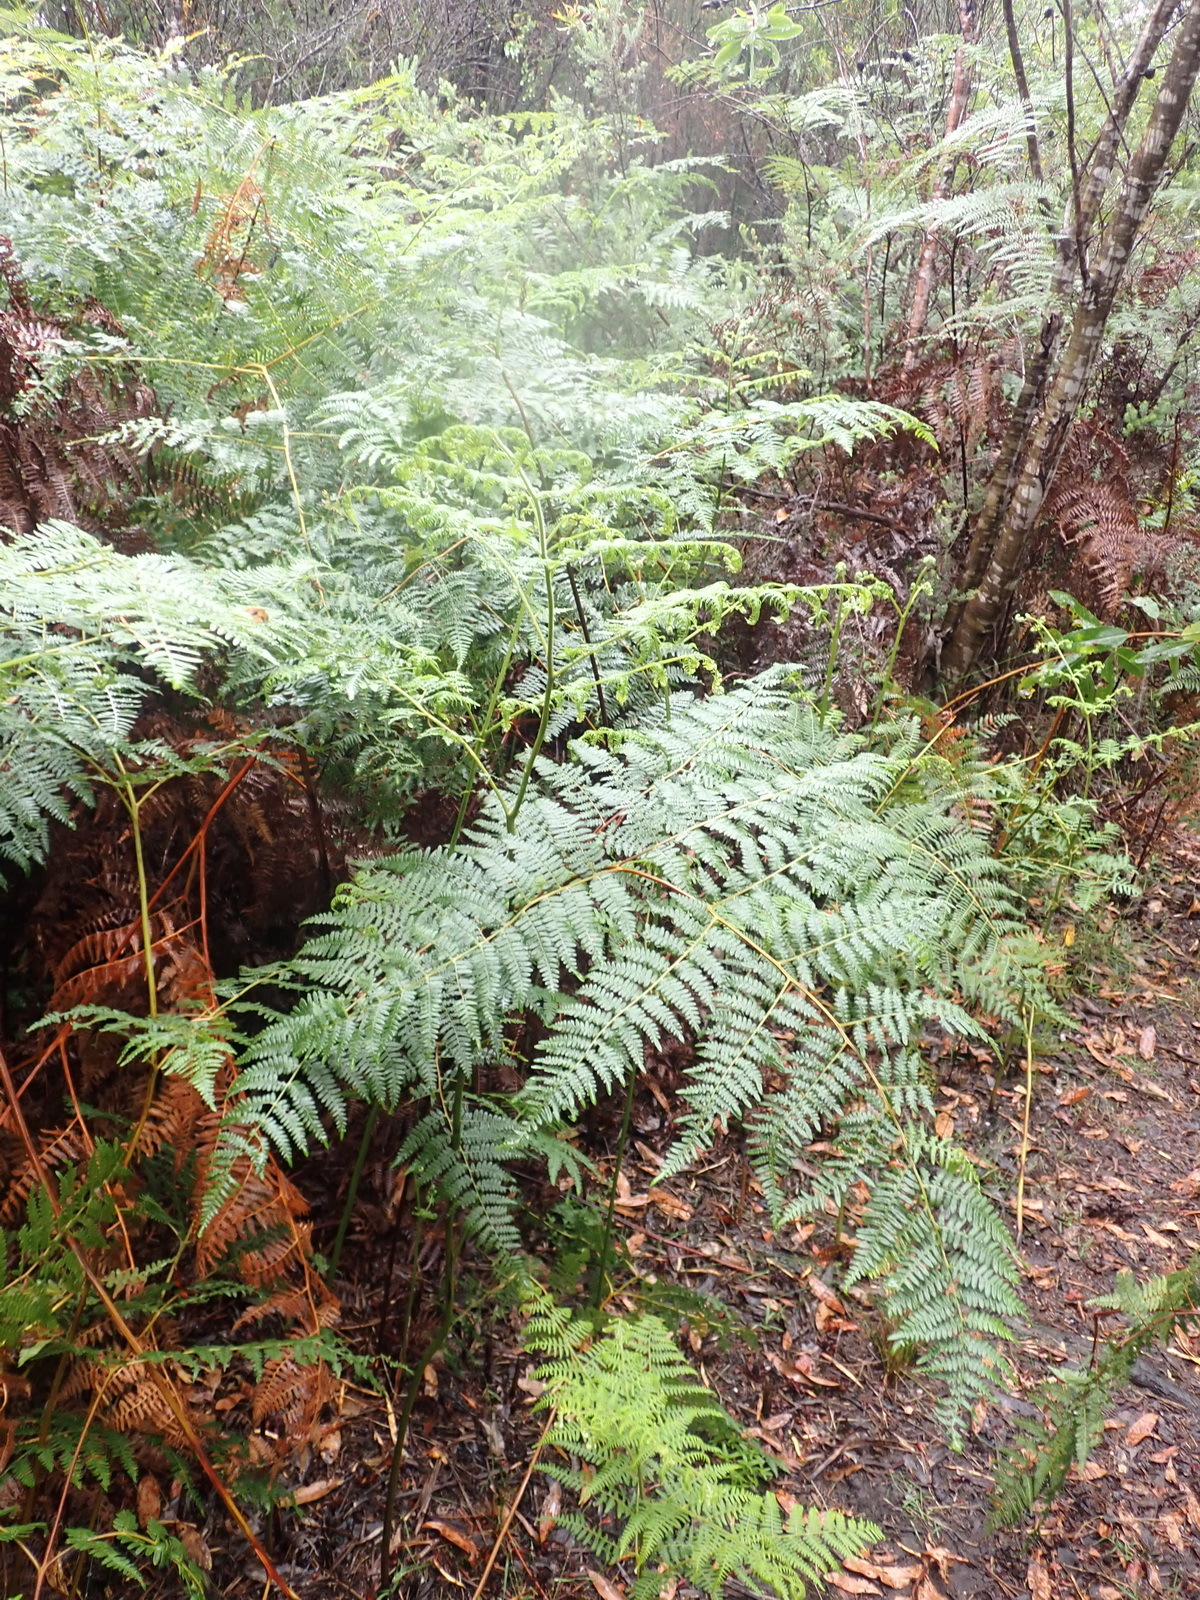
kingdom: Plantae
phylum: Tracheophyta
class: Polypodiopsida
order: Polypodiales
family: Dennstaedtiaceae
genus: Pteridium
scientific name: Pteridium aquilinum
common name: Bracken
